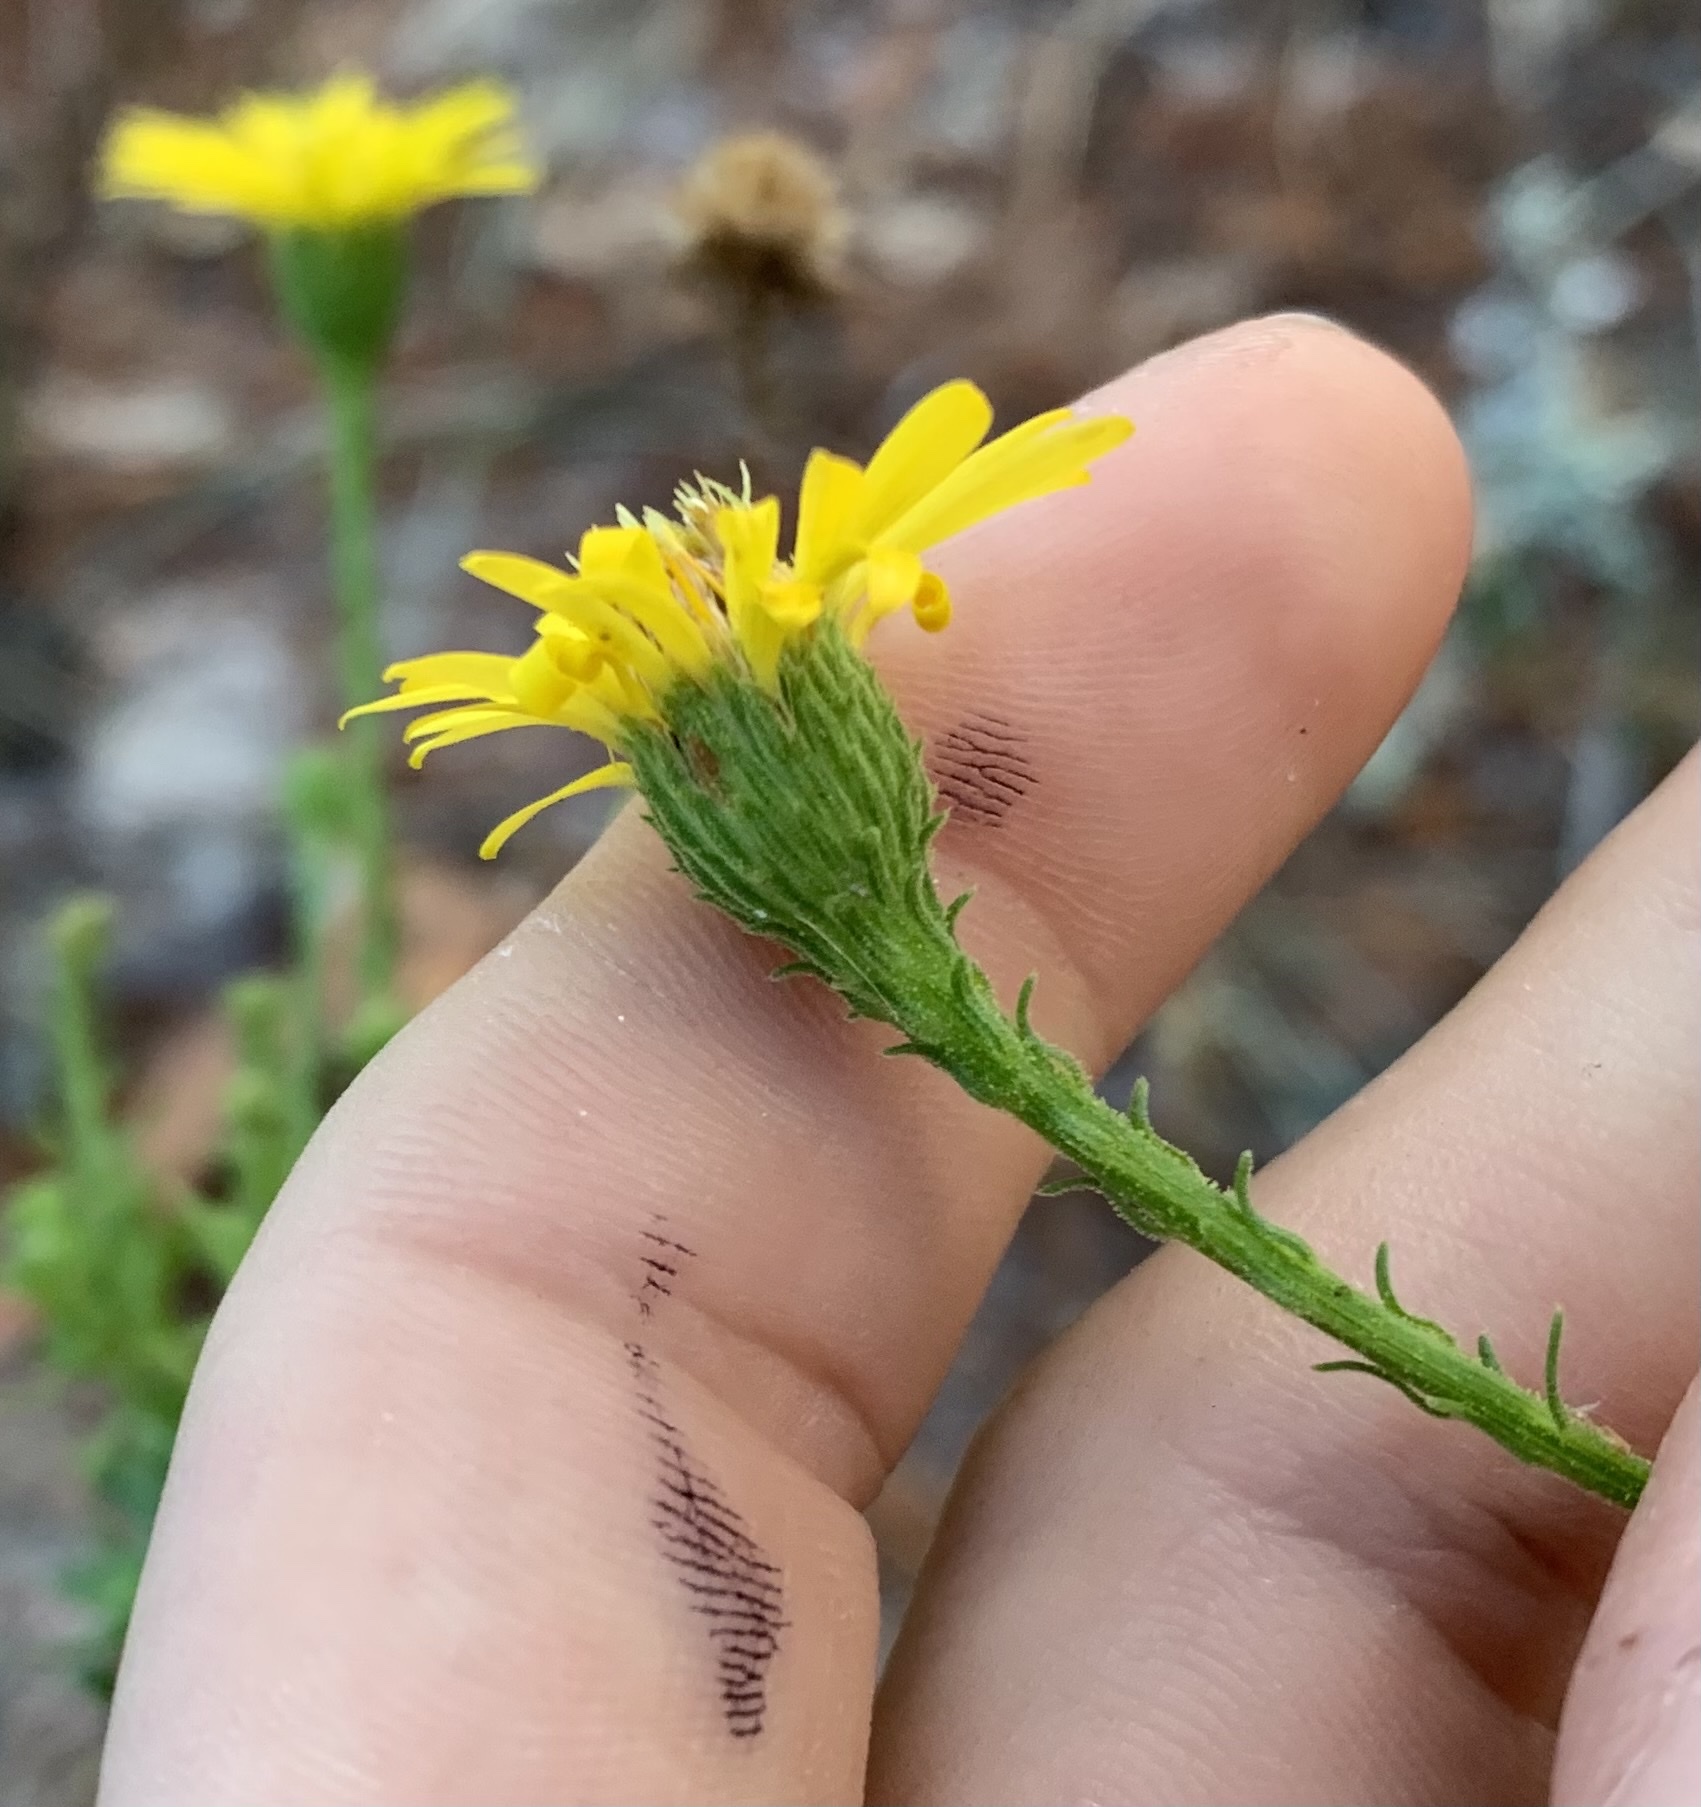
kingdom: Plantae
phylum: Tracheophyta
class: Magnoliopsida
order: Asterales
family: Asteraceae
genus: Chrysopsis
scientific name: Chrysopsis scabrella
